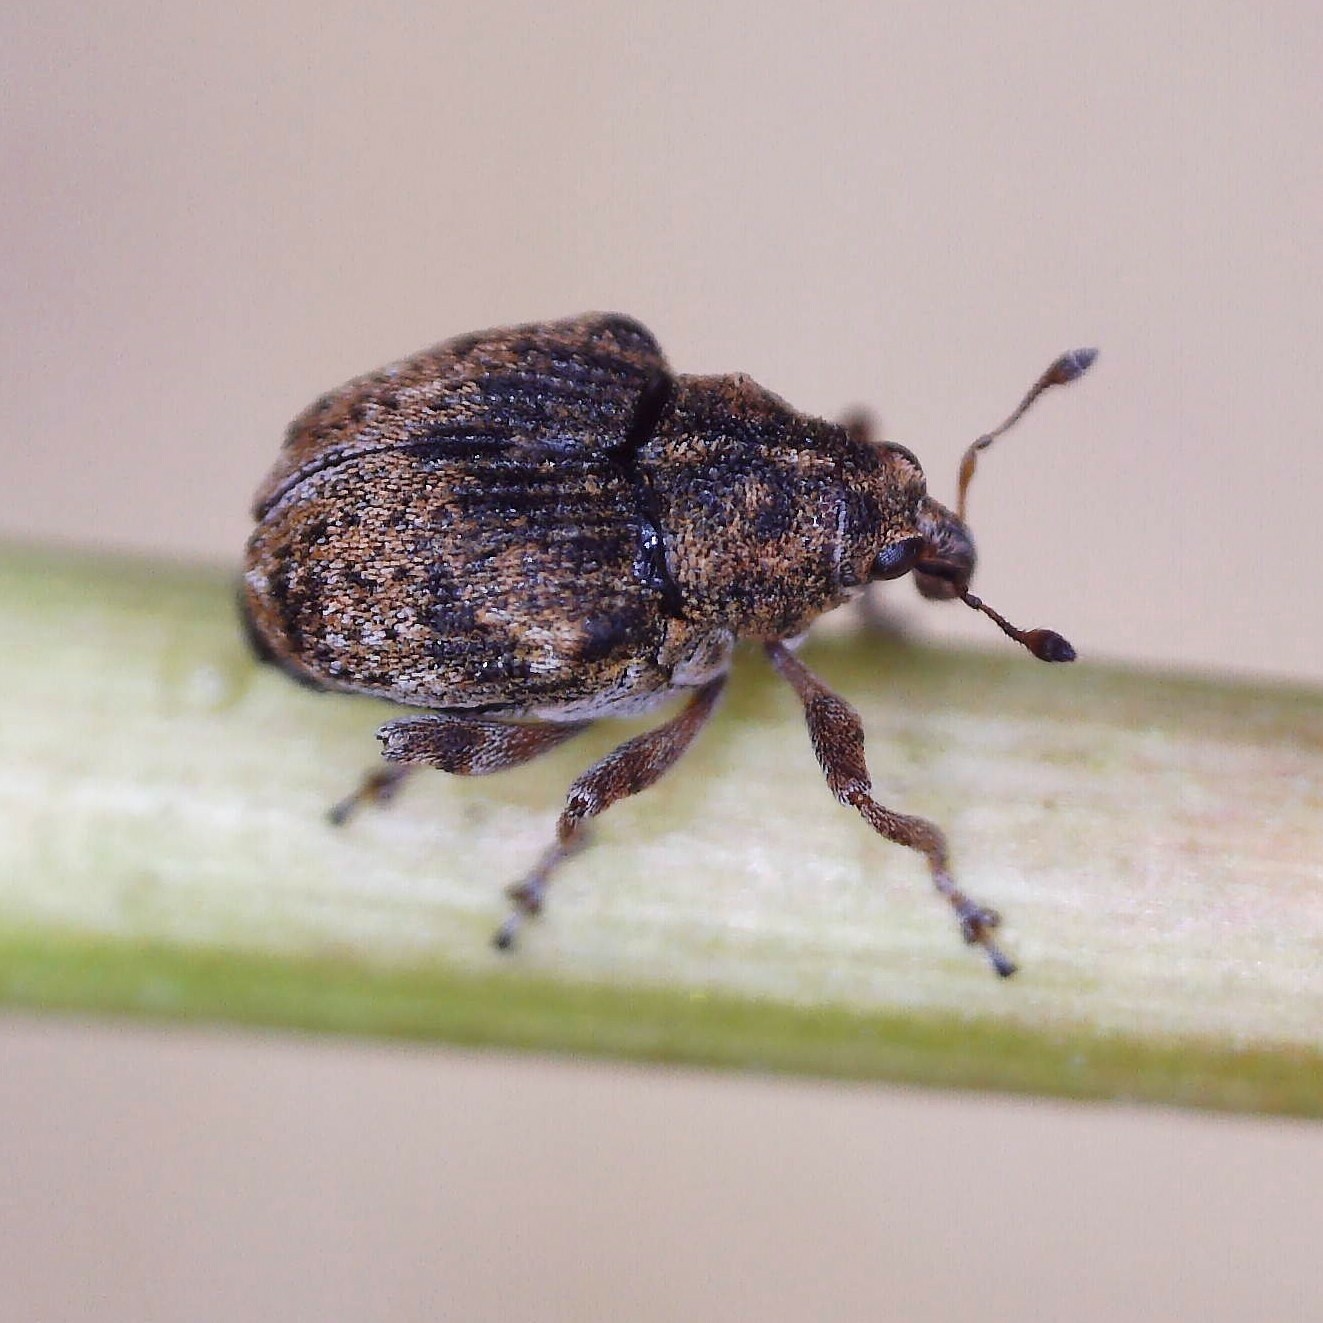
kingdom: Animalia
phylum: Arthropoda
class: Insecta
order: Coleoptera
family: Curculionidae
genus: Rhinoncus
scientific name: Rhinoncus bruchoides
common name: Weevil
